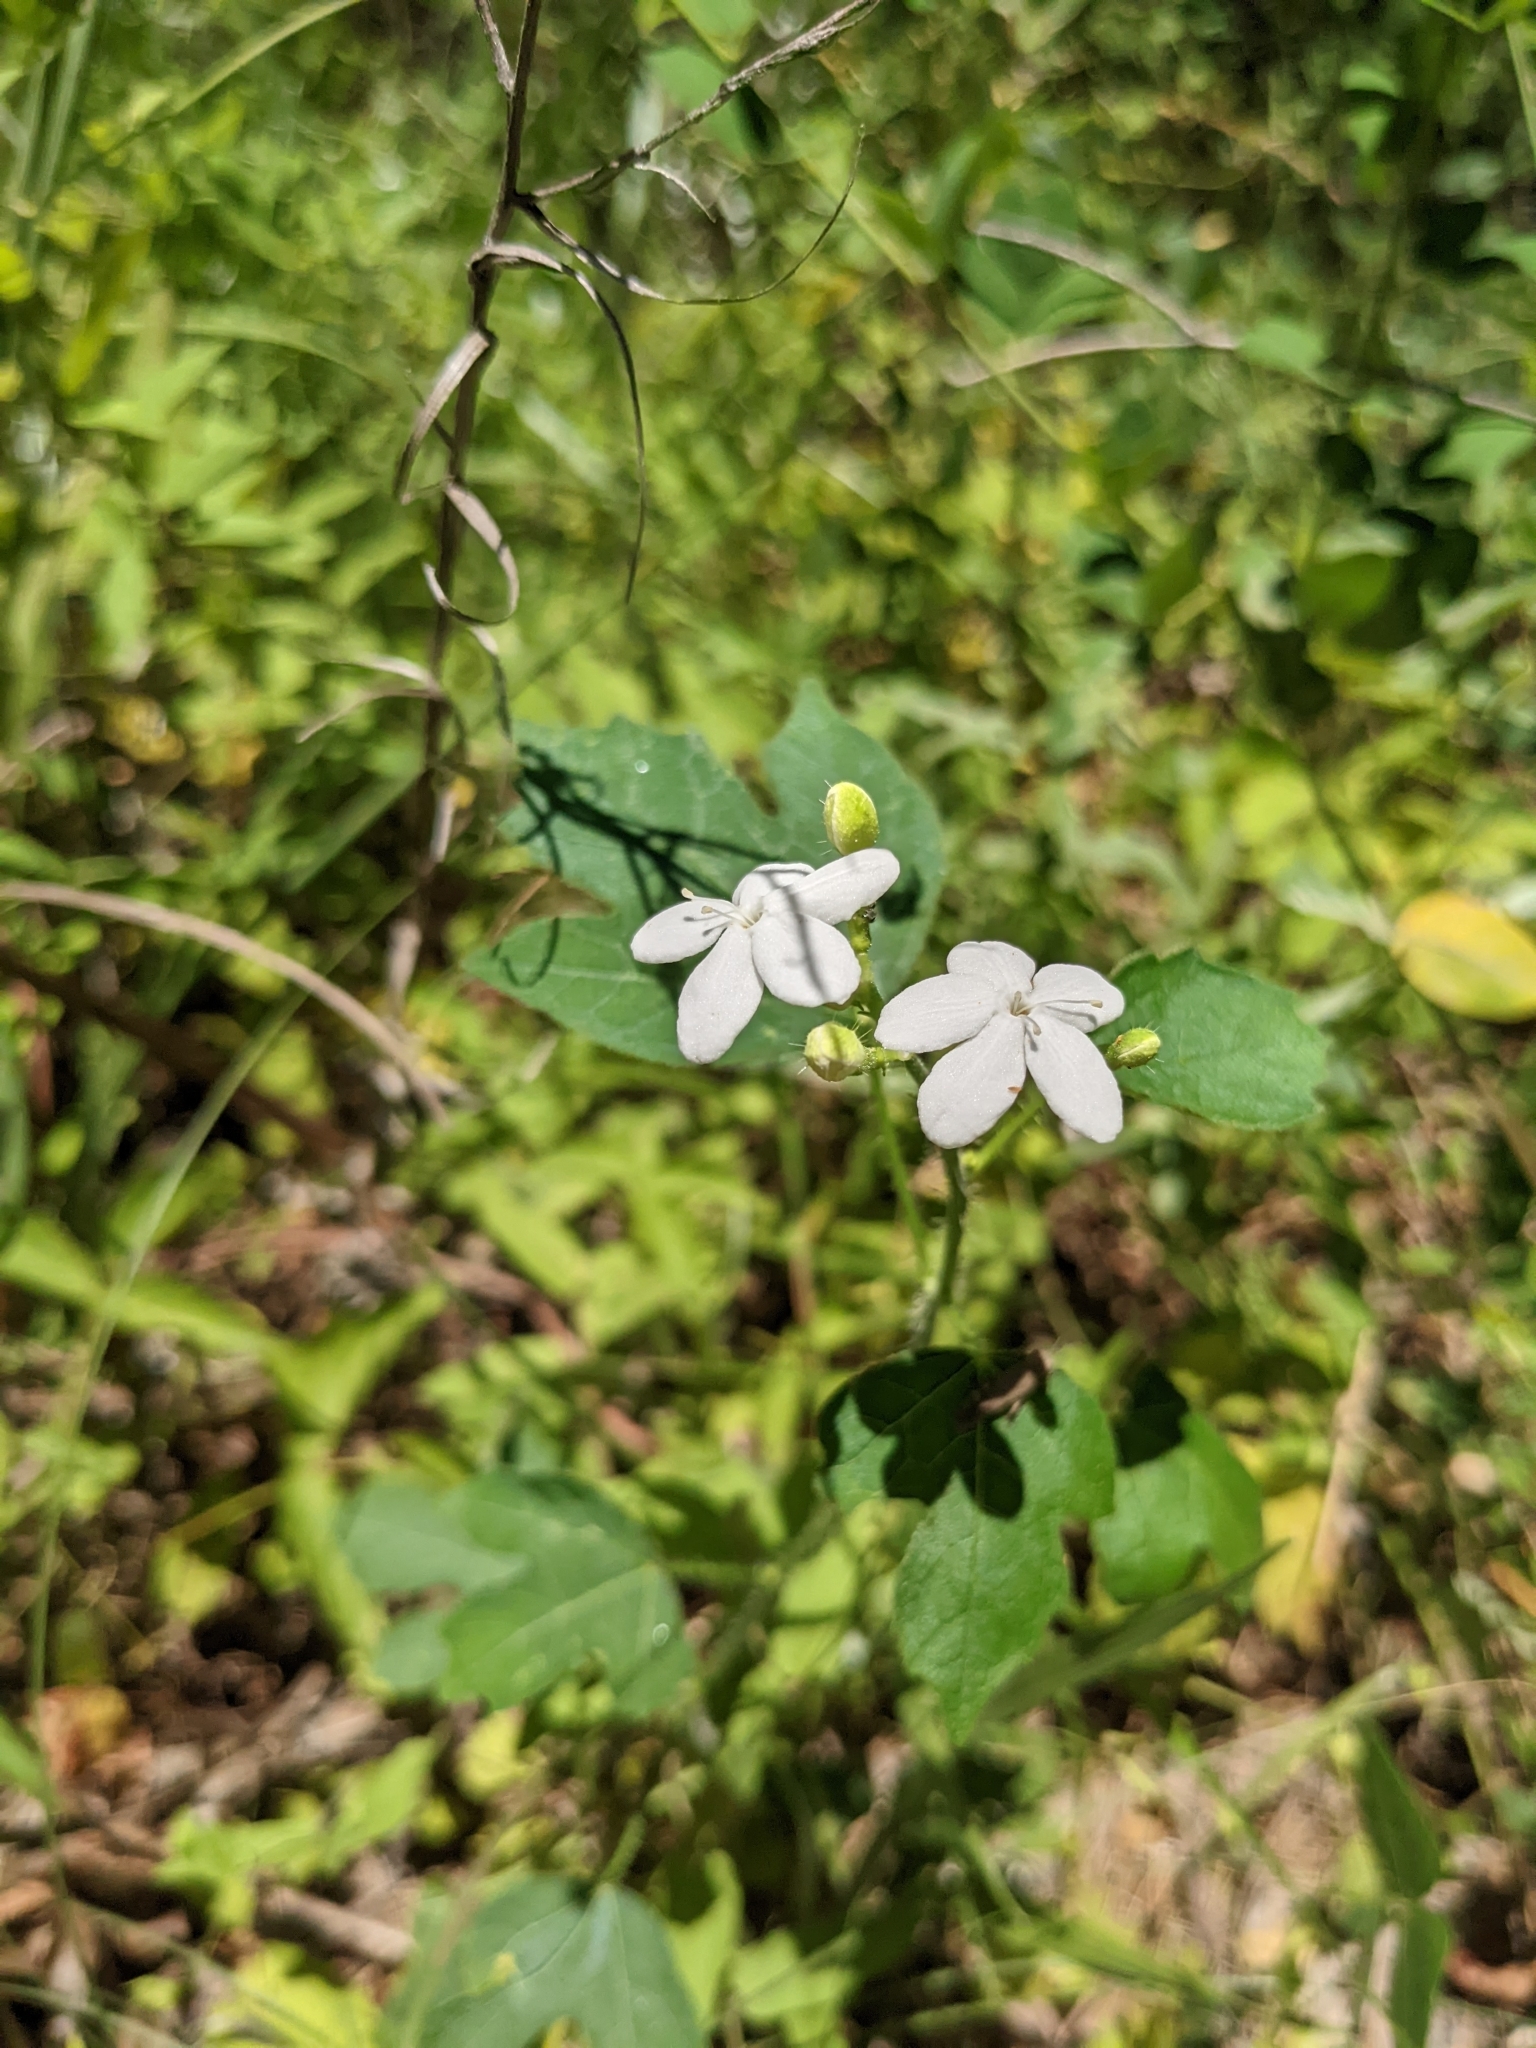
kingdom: Plantae
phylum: Tracheophyta
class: Magnoliopsida
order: Malpighiales
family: Euphorbiaceae
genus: Cnidoscolus
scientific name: Cnidoscolus stimulosus
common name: Bull-nettle
